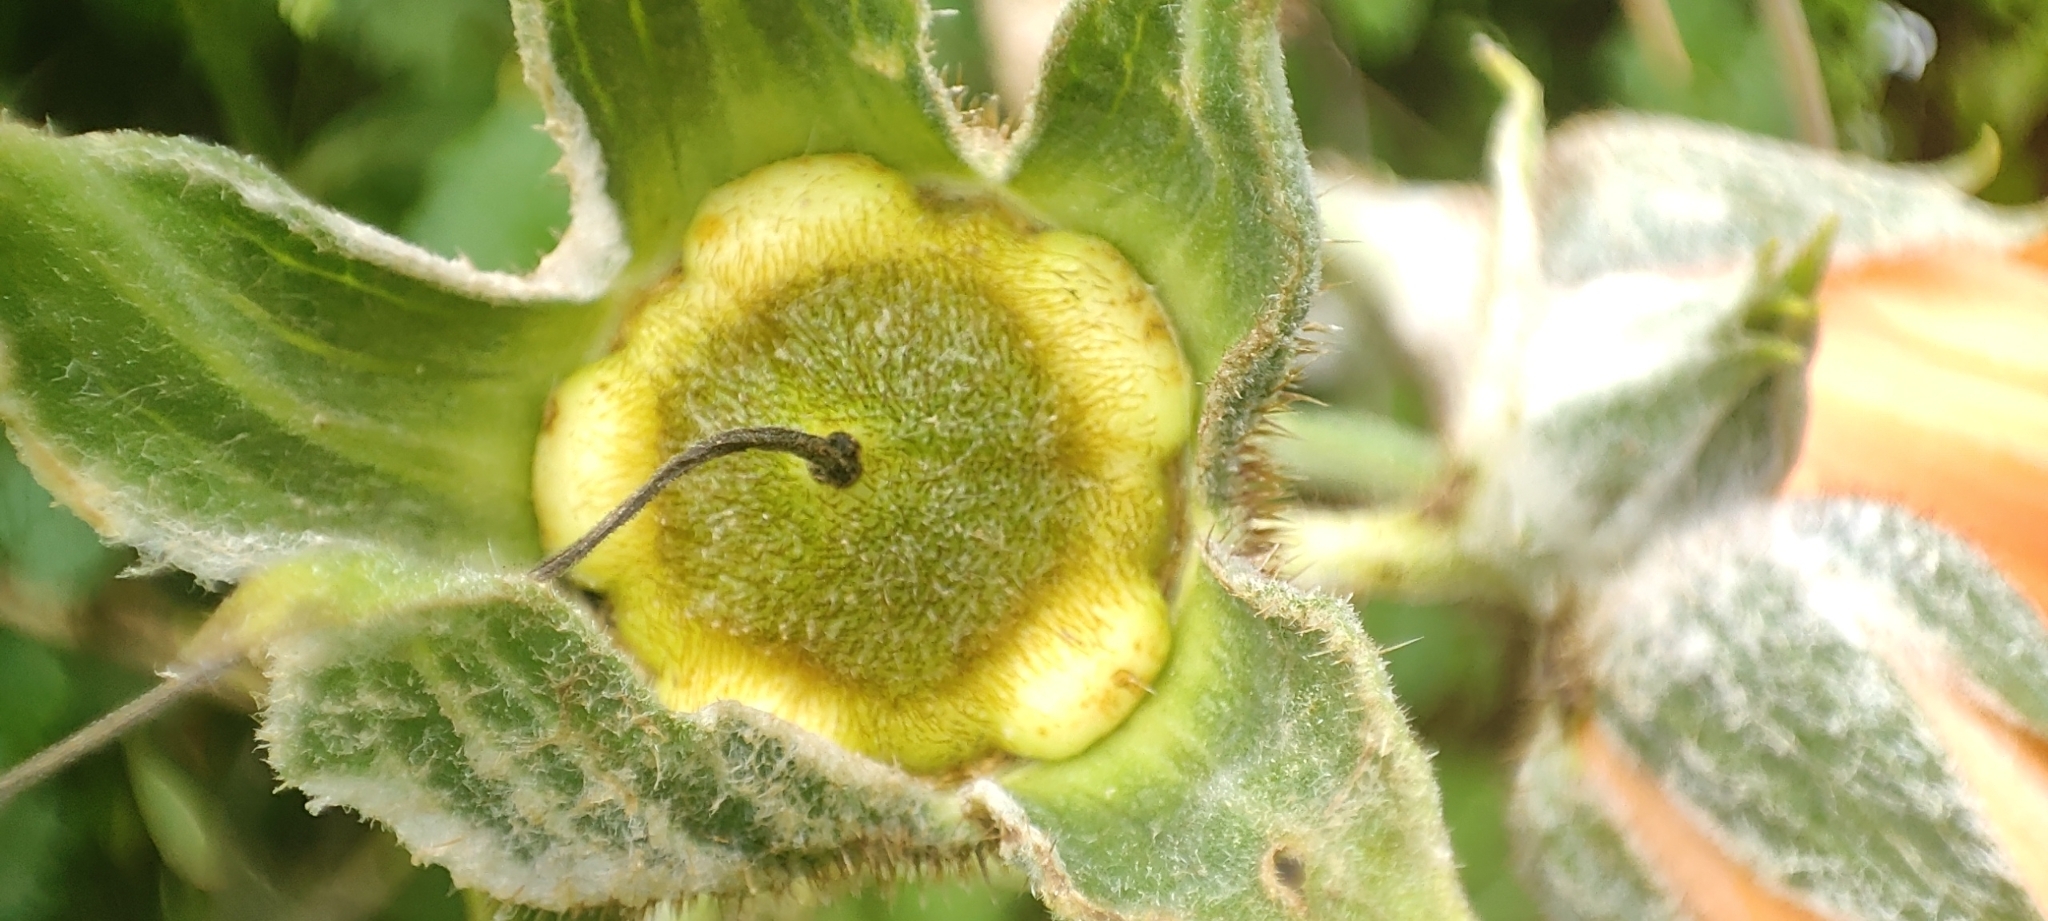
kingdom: Plantae
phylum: Tracheophyta
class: Magnoliopsida
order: Cornales
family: Loasaceae
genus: Nasa
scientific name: Nasa weberbaueri
